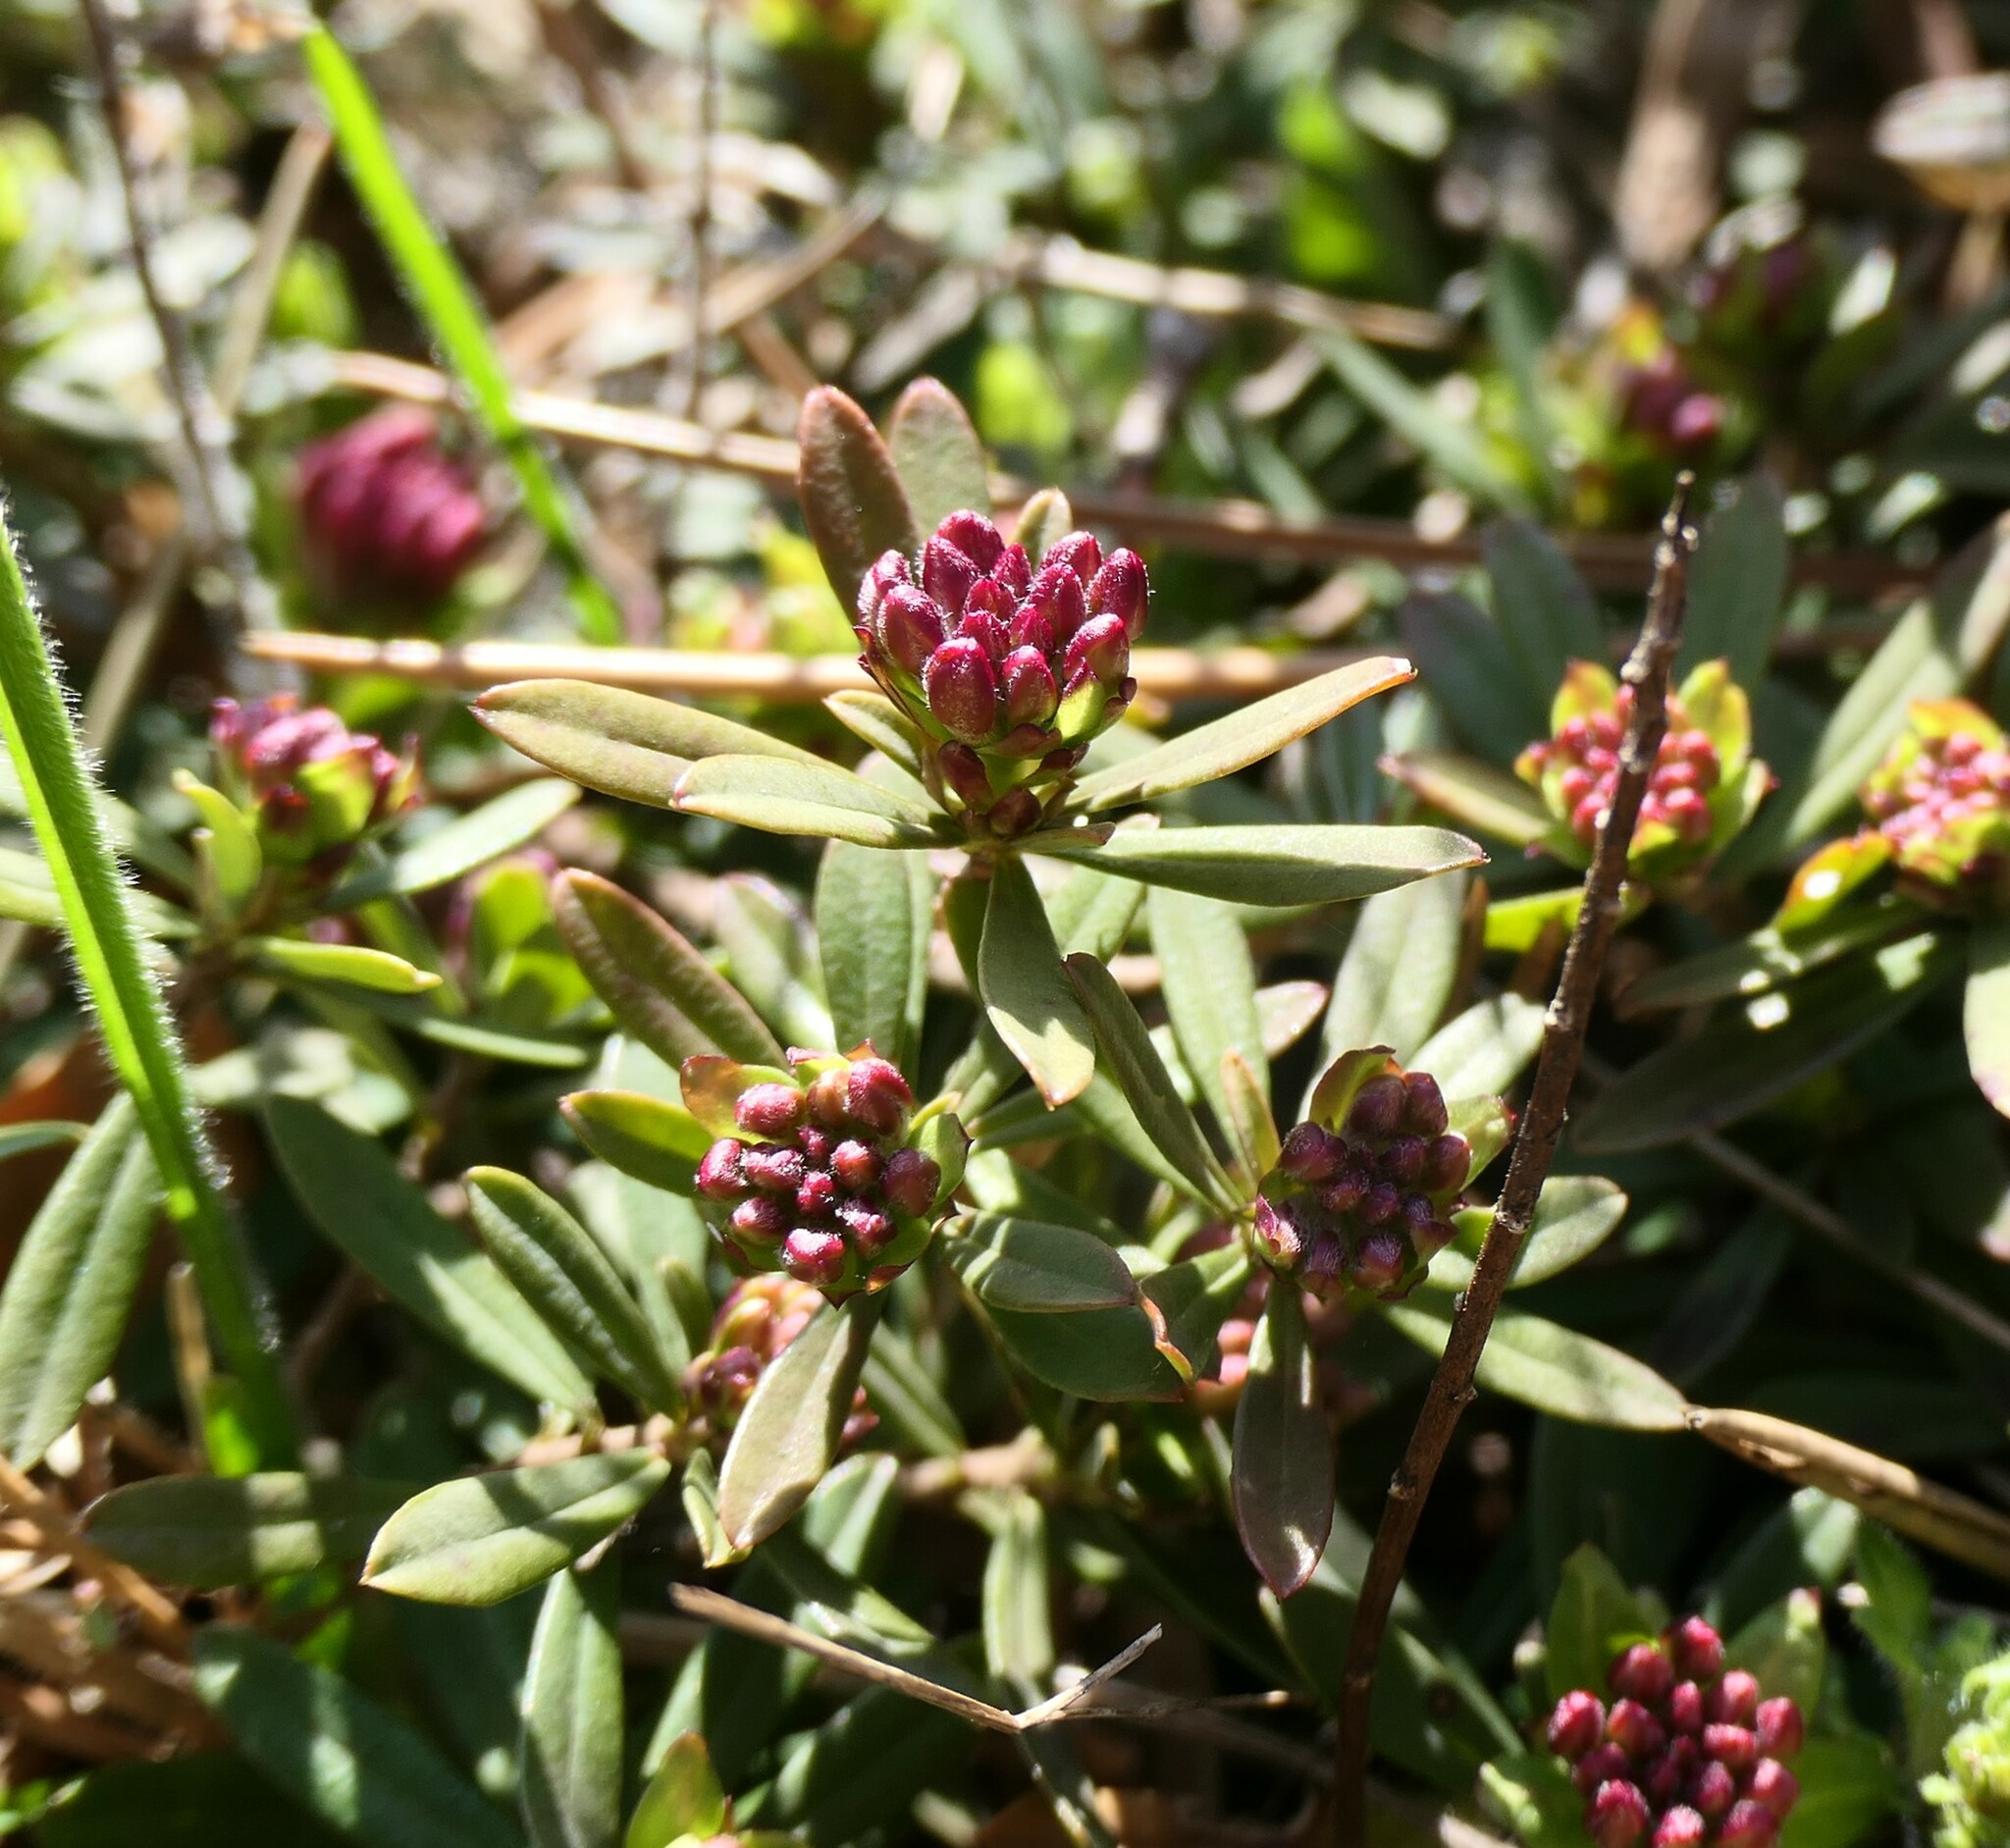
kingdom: Plantae
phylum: Tracheophyta
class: Magnoliopsida
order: Malvales
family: Thymelaeaceae
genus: Daphne
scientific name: Daphne cneorum
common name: Garland-flower
